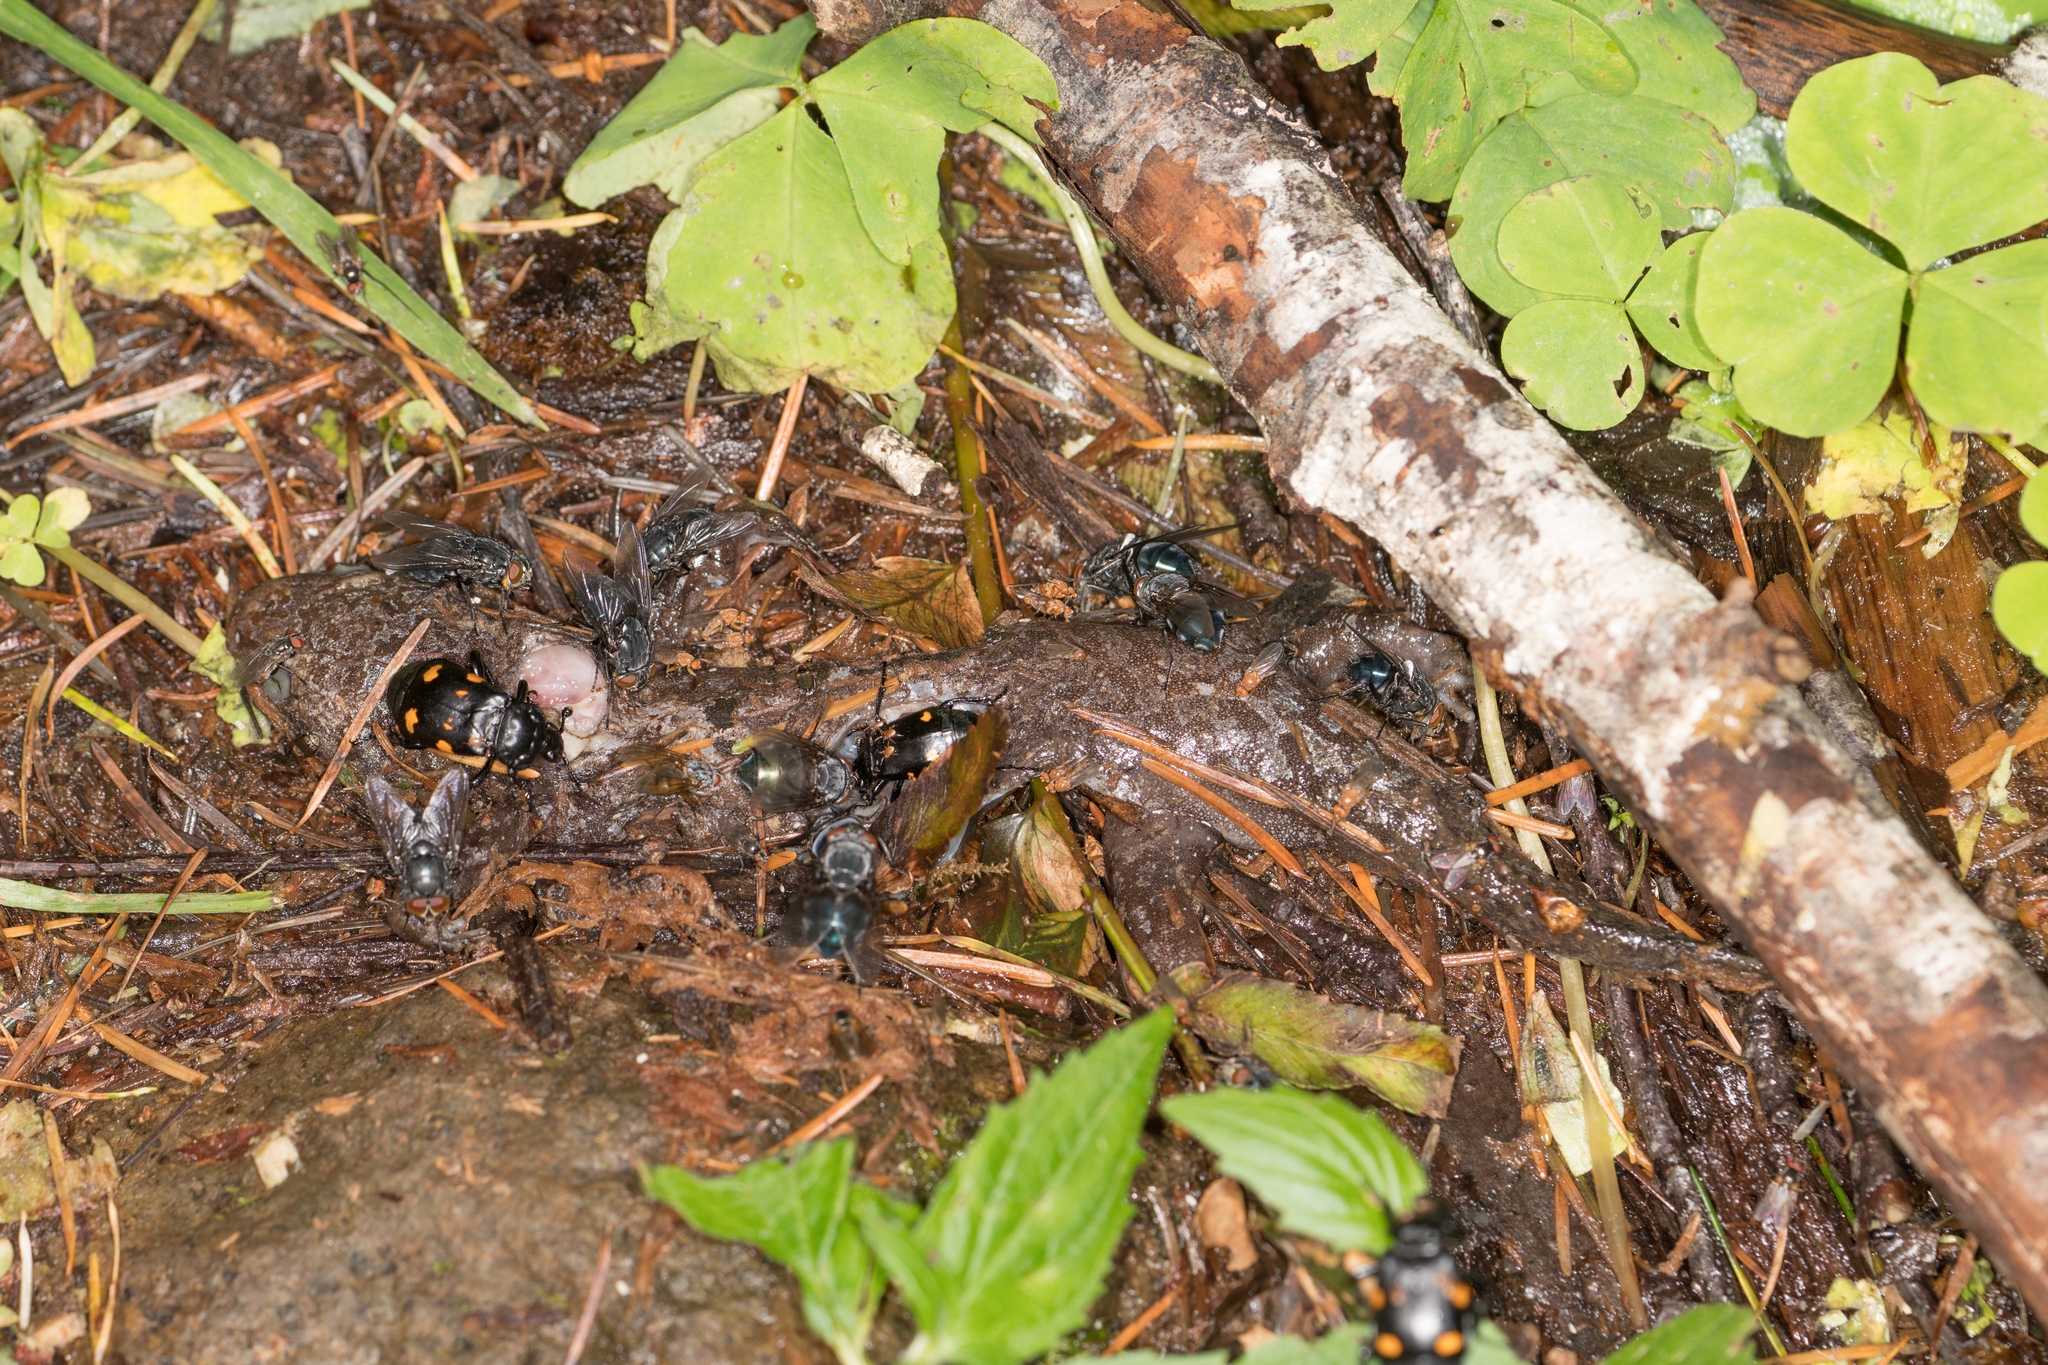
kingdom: Animalia
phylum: Chordata
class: Amphibia
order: Caudata
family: Ambystomatidae
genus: Dicamptodon
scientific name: Dicamptodon tenebrosus
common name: Coastal giant salamander
